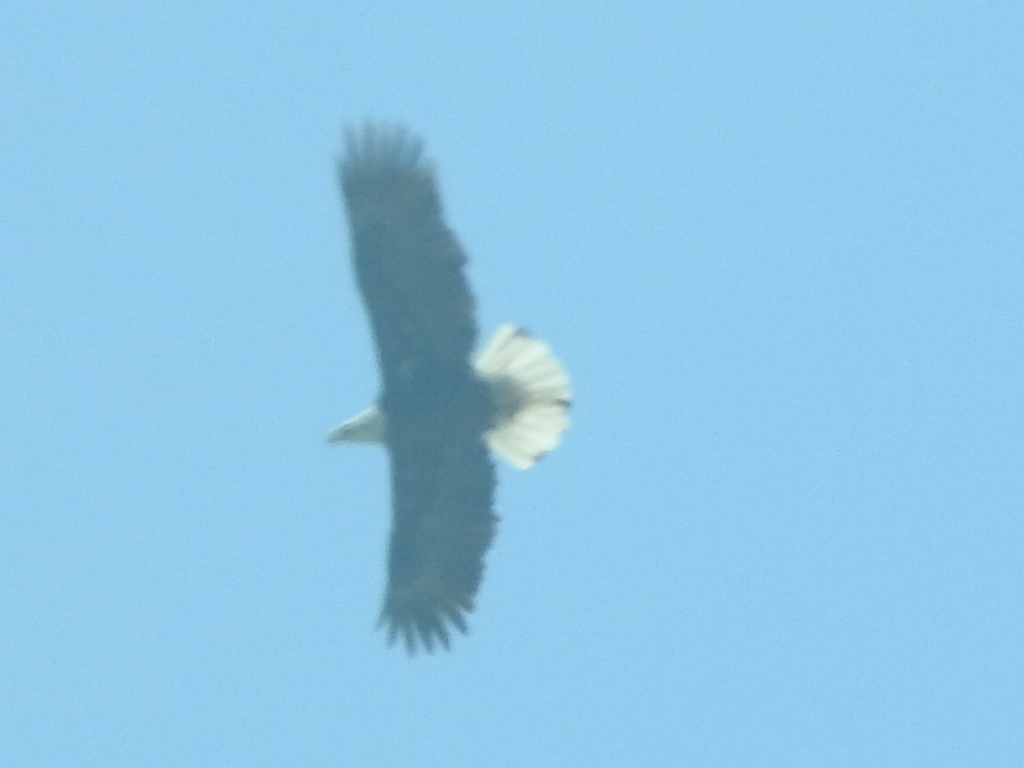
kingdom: Animalia
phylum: Chordata
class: Aves
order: Accipitriformes
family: Accipitridae
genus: Haliaeetus
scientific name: Haliaeetus leucocephalus
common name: Bald eagle
